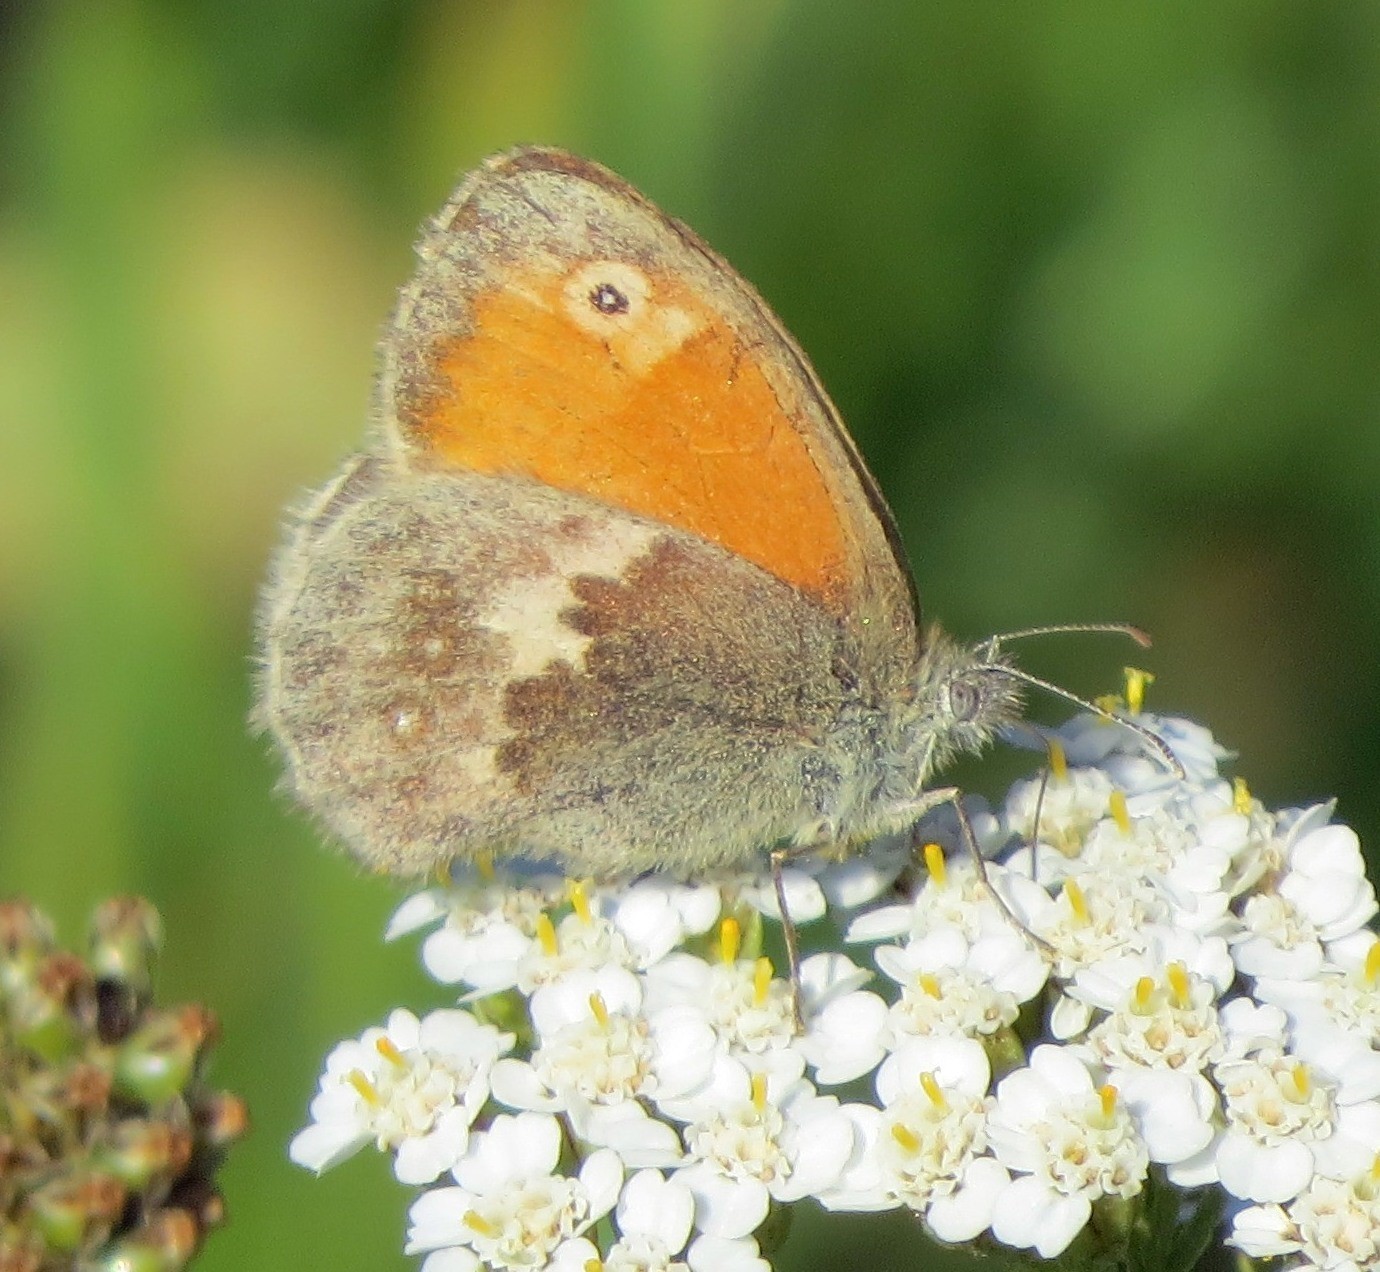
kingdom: Animalia
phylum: Arthropoda
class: Insecta
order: Lepidoptera
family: Nymphalidae
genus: Coenonympha
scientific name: Coenonympha pamphilus
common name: Small heath
